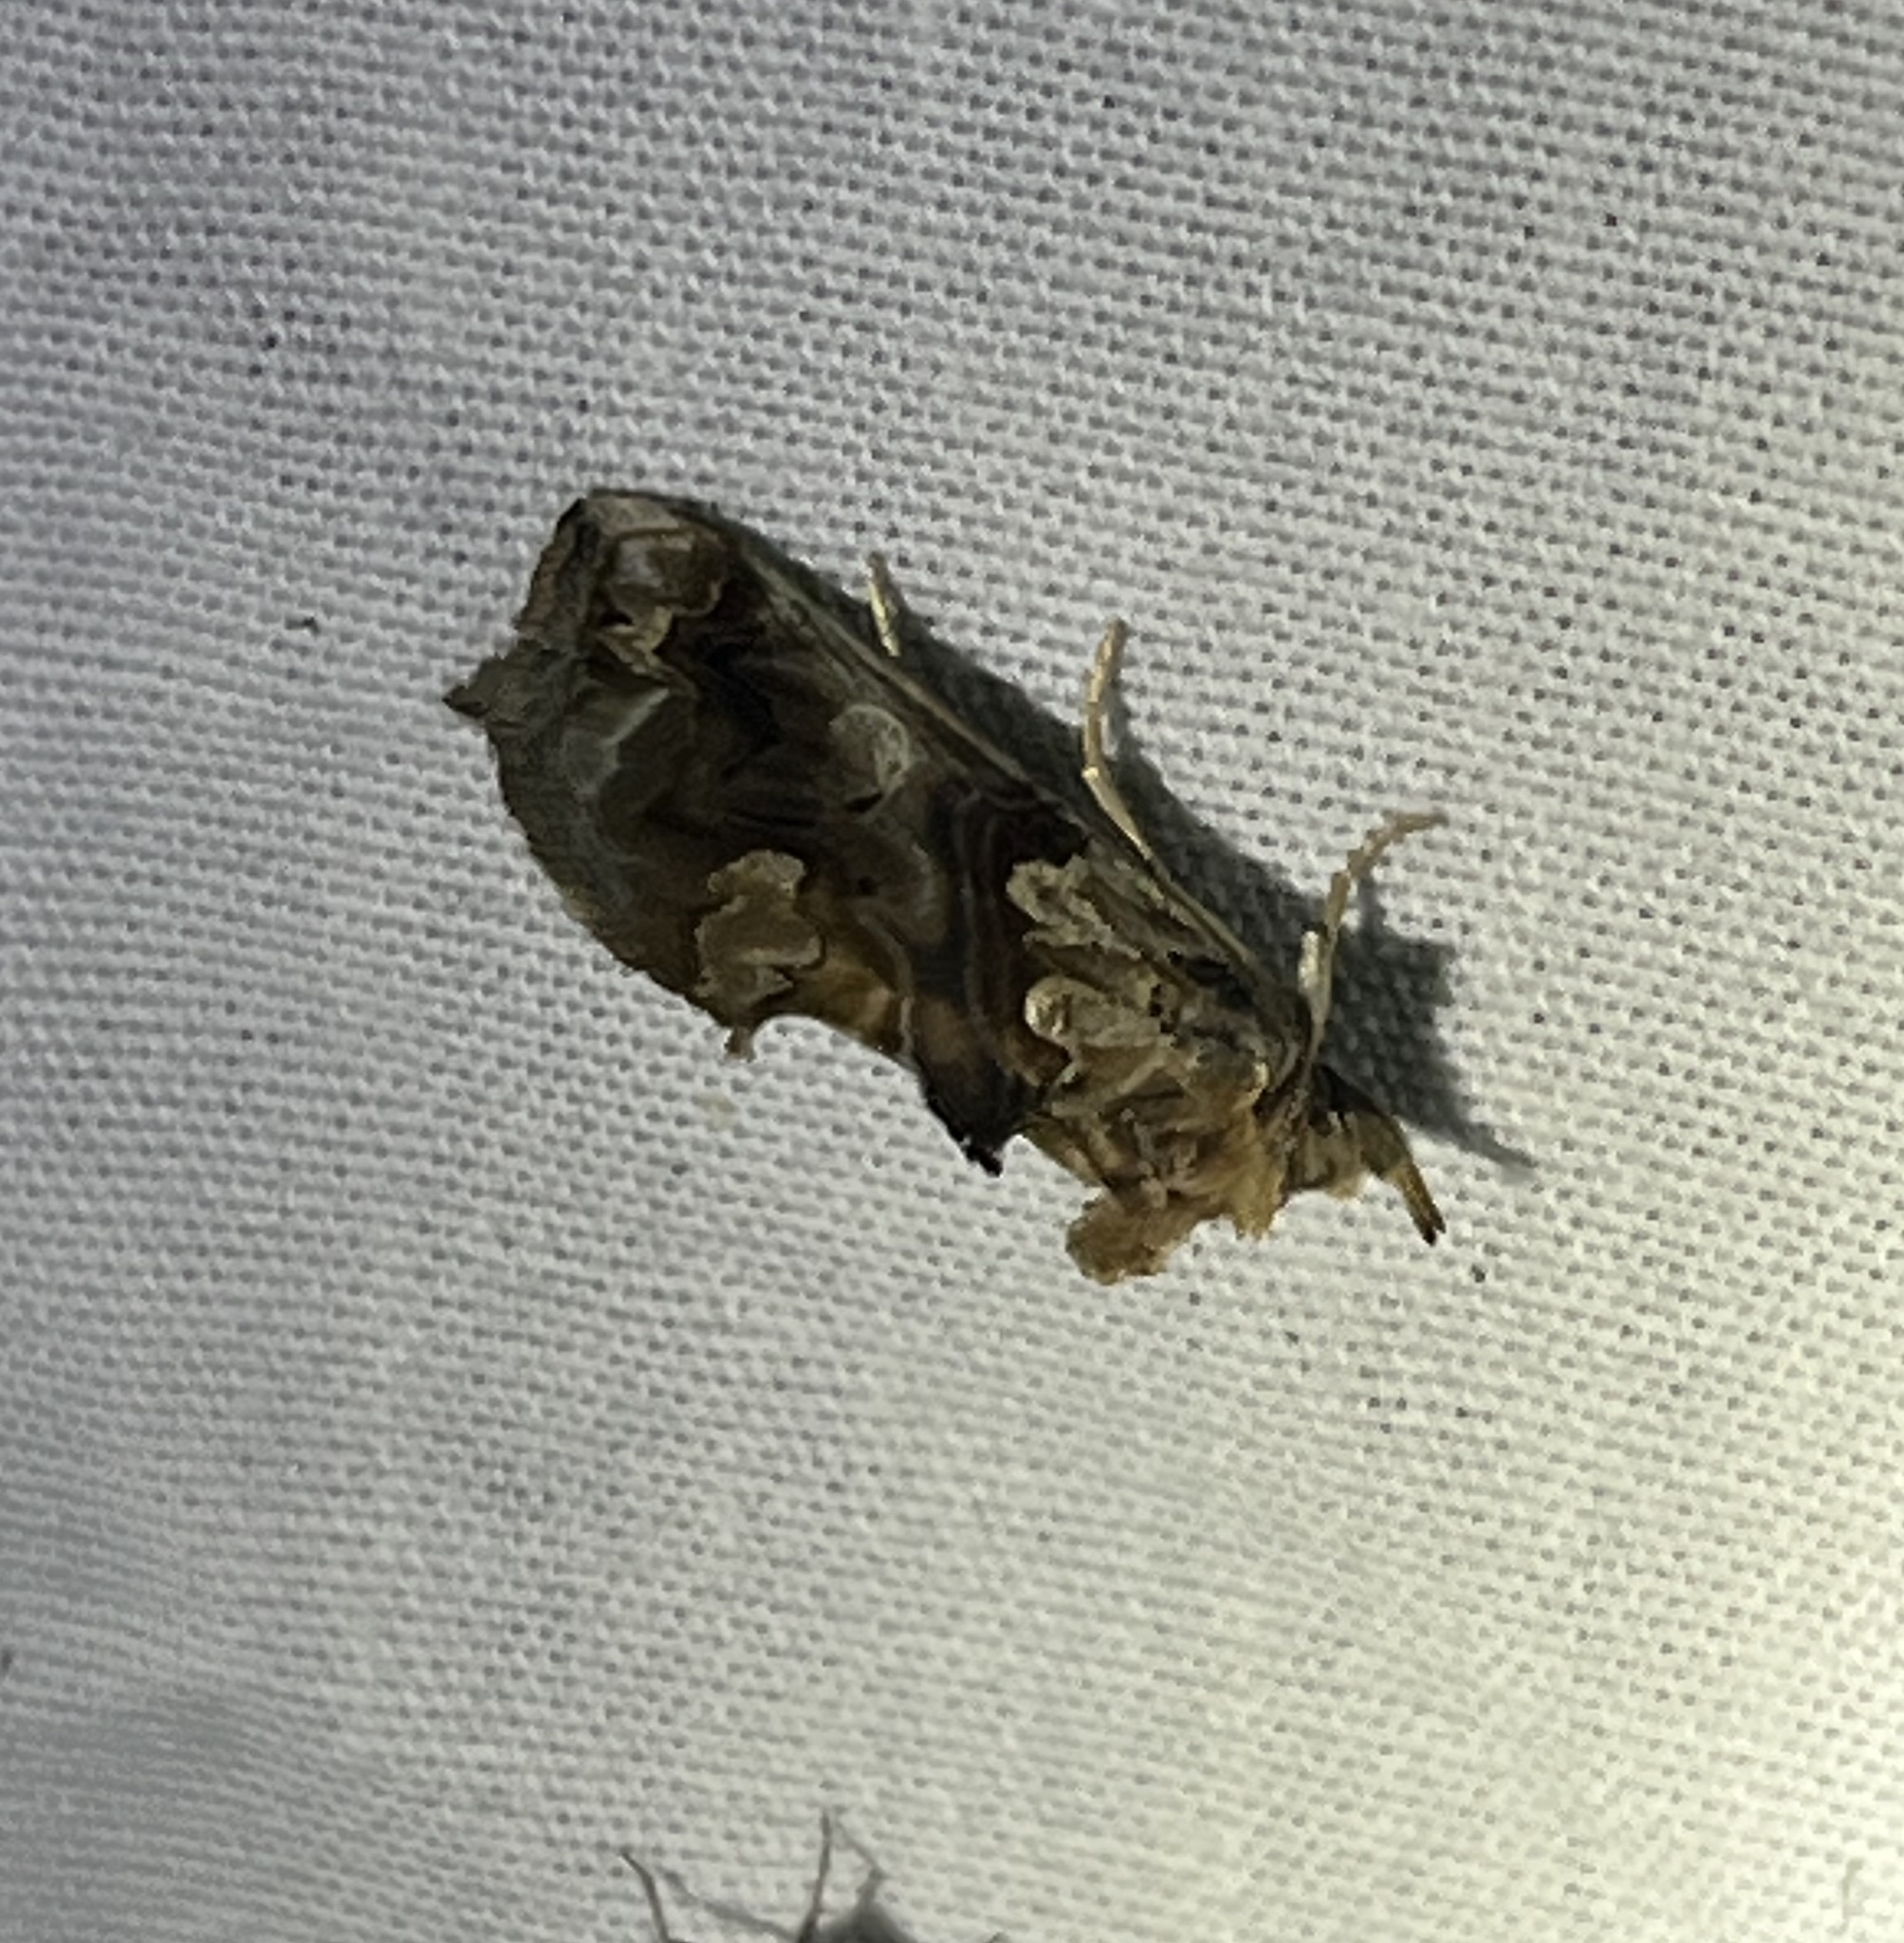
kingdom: Animalia
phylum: Arthropoda
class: Insecta
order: Lepidoptera
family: Erebidae
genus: Plusiodonta
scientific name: Plusiodonta compressipalpis
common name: Moonseed moth
